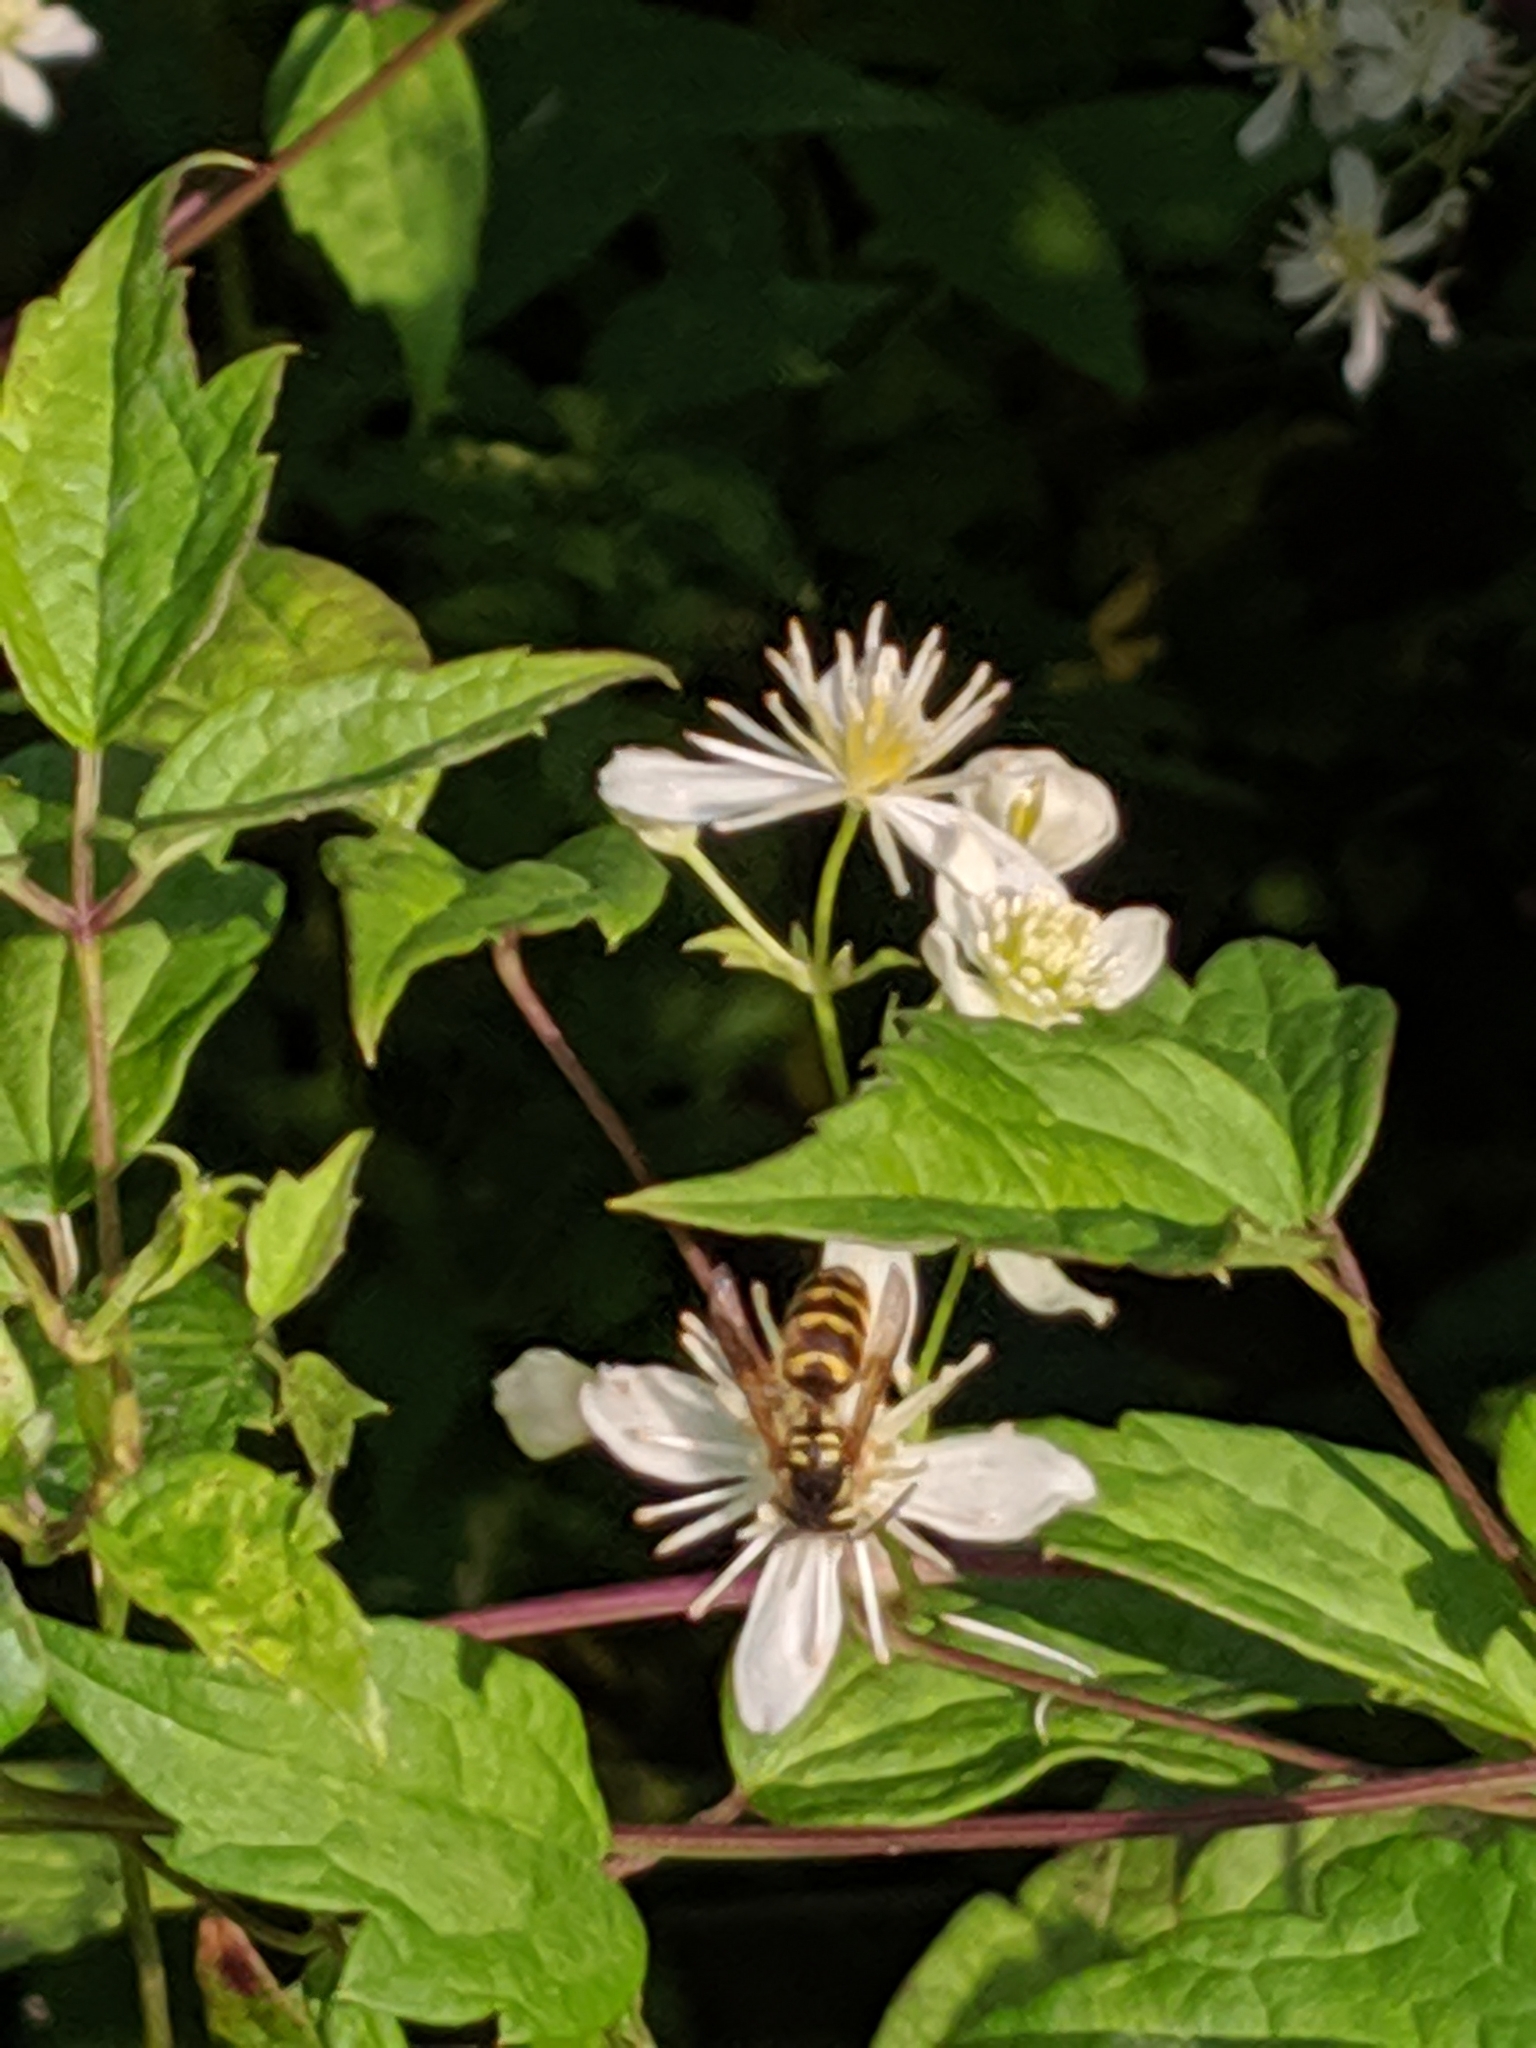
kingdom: Animalia
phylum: Arthropoda
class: Insecta
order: Hymenoptera
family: Vespidae
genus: Vespula
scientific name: Vespula flavopilosa
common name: Downy yellowjacket
